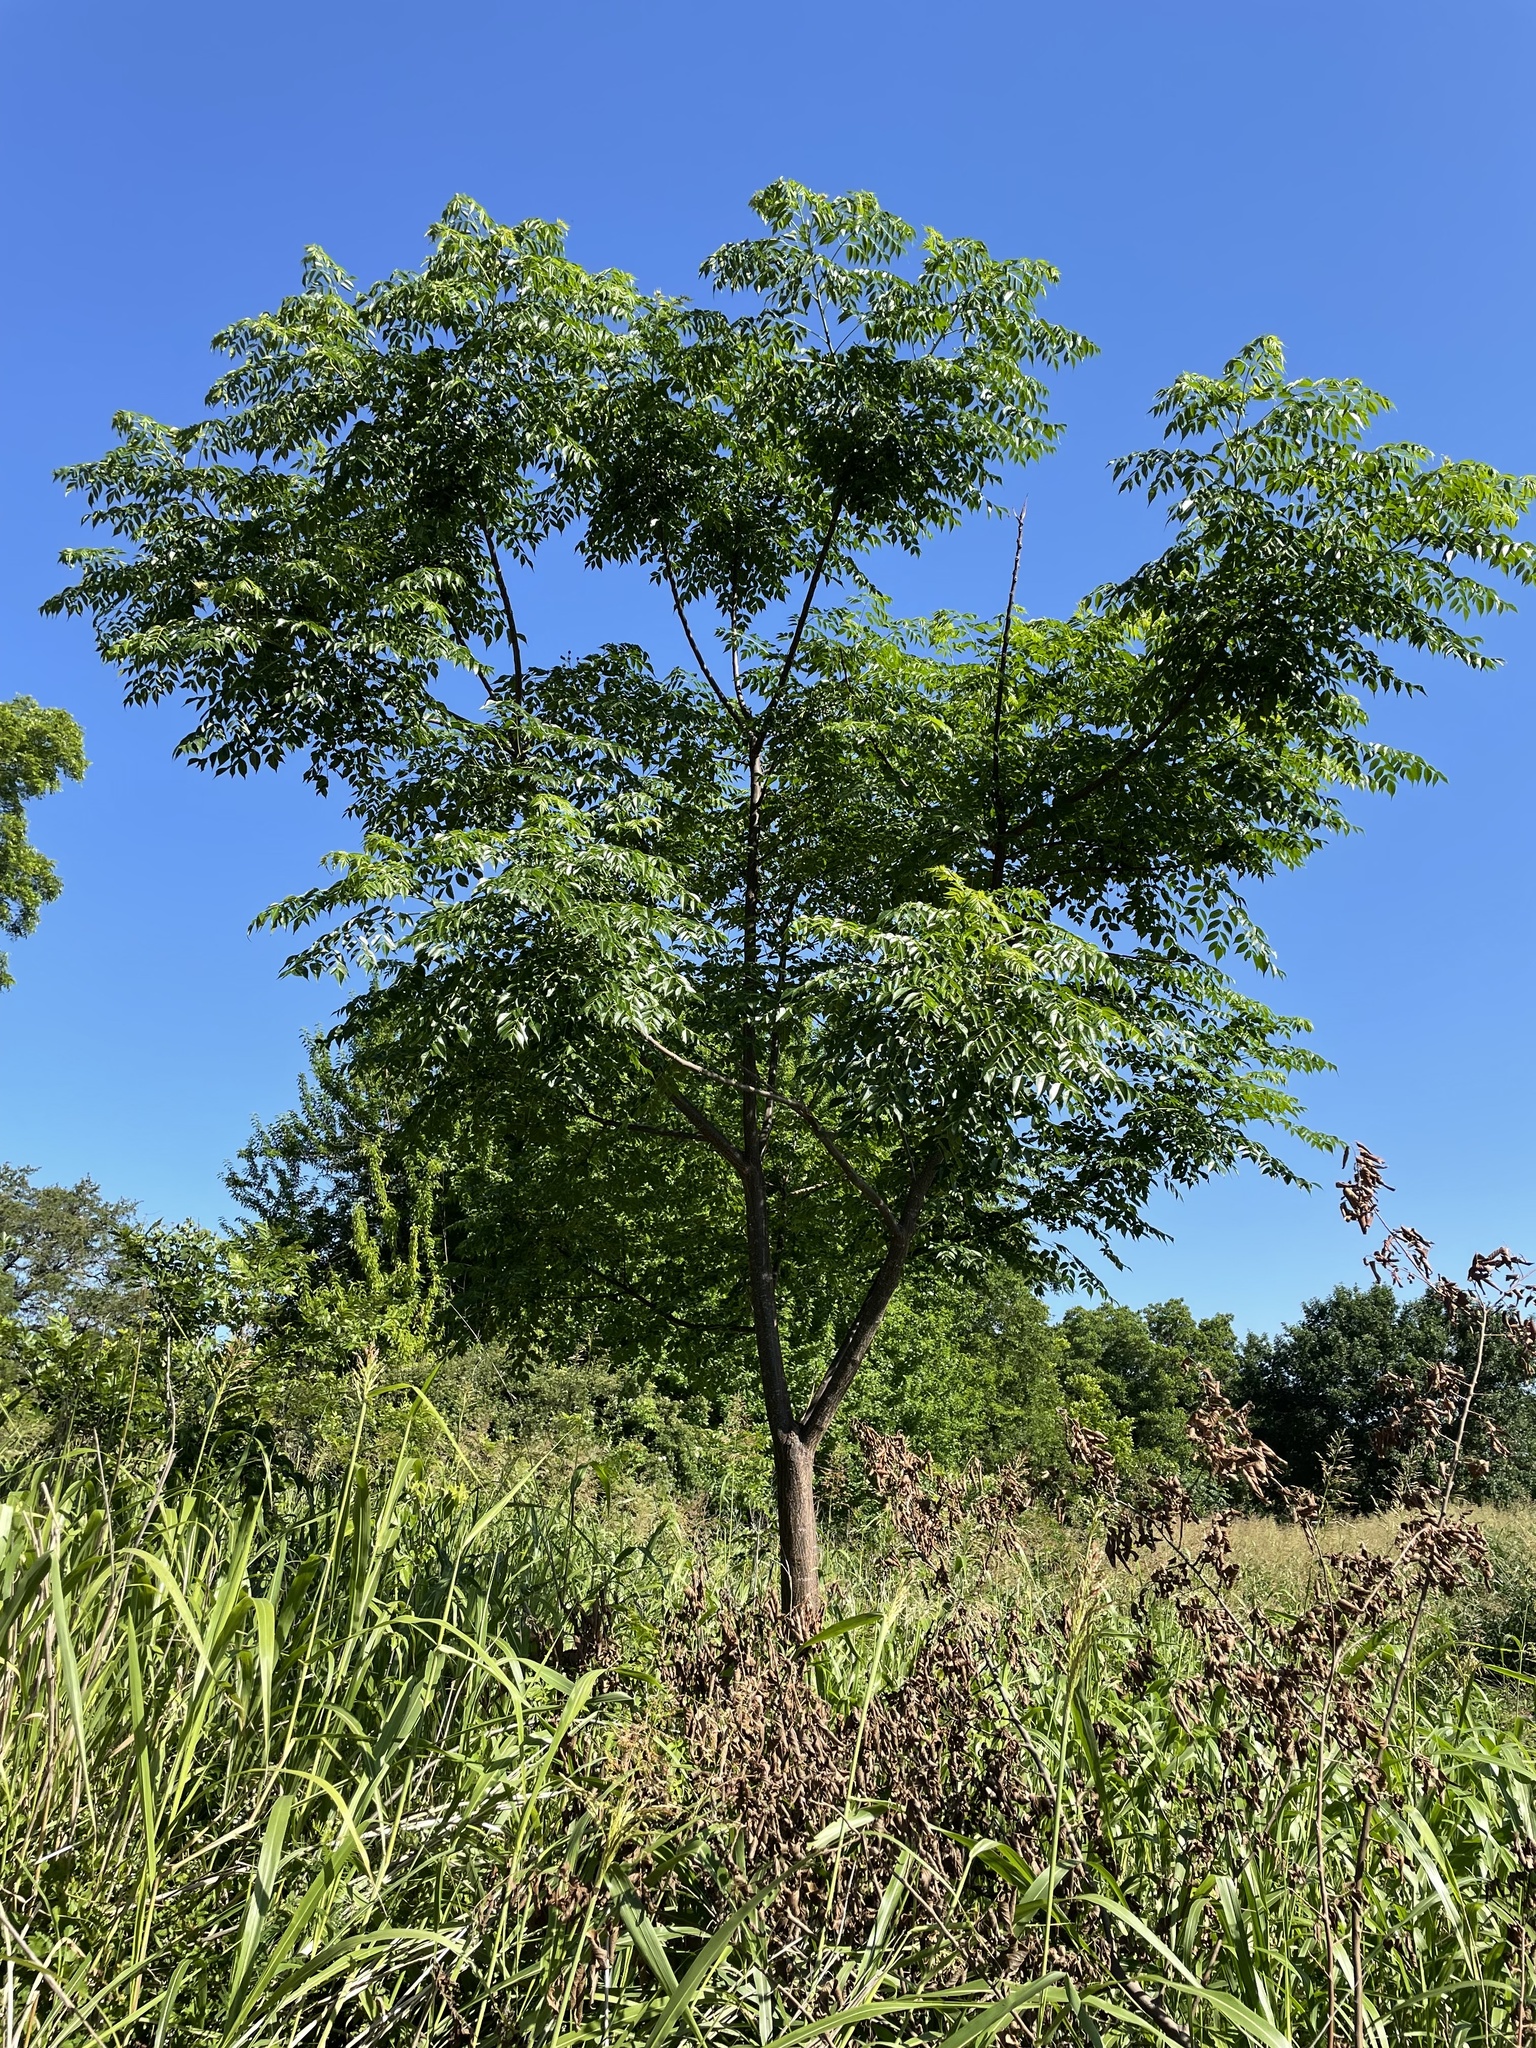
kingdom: Plantae
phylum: Tracheophyta
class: Magnoliopsida
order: Sapindales
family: Meliaceae
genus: Melia
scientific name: Melia azedarach
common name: Chinaberrytree
